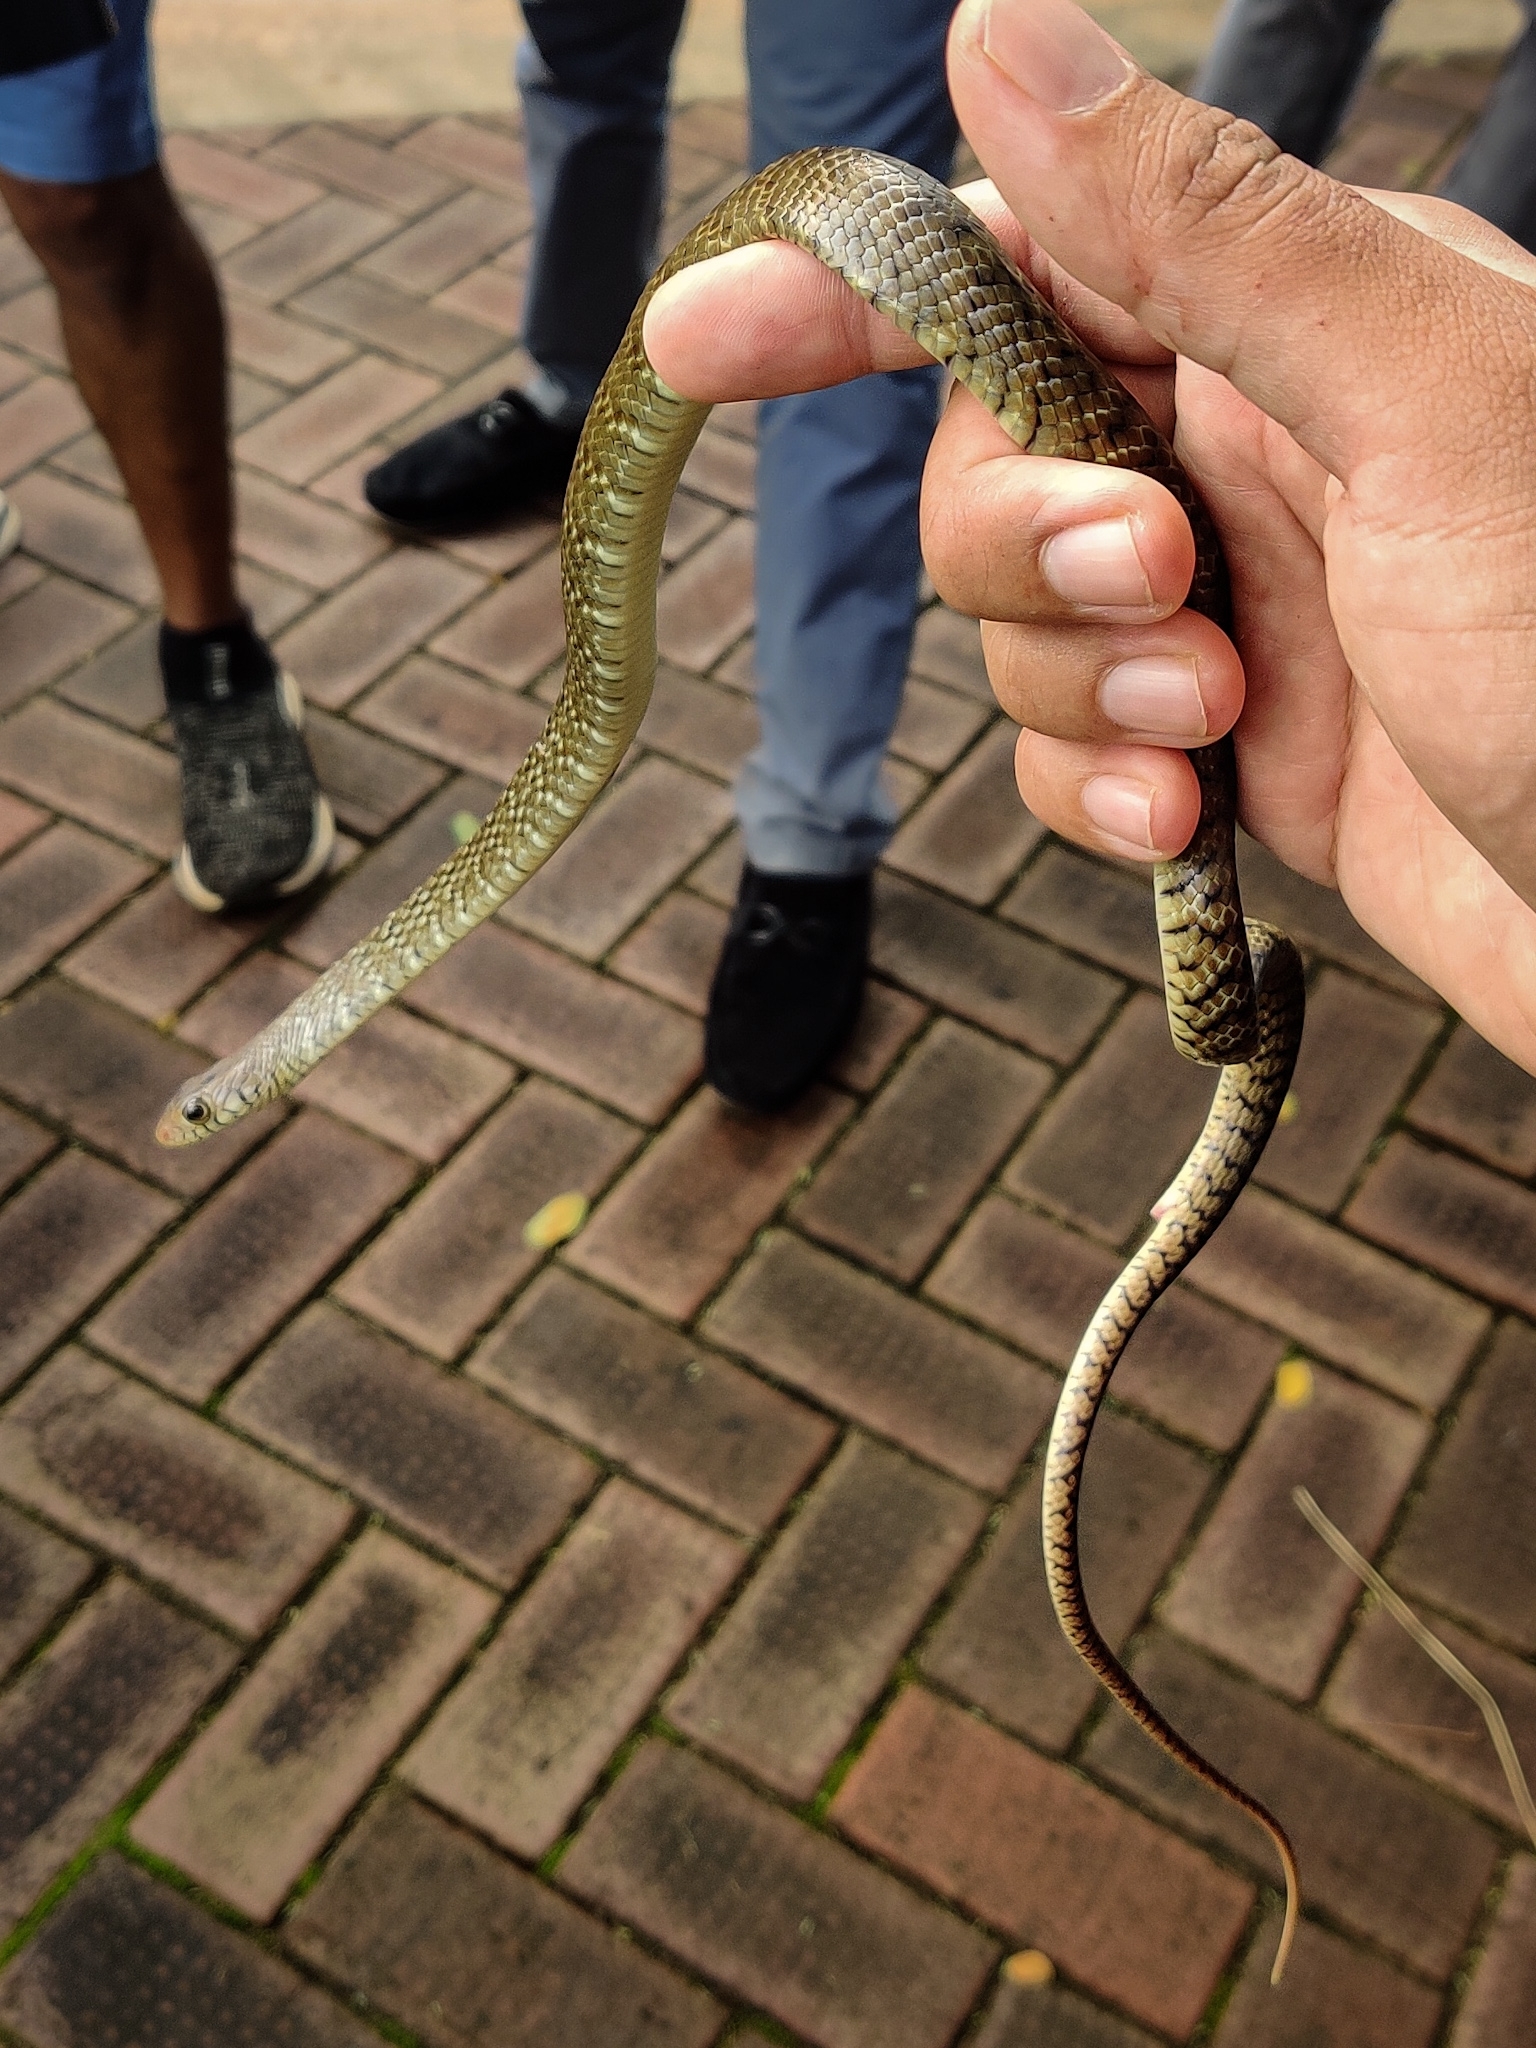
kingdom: Animalia
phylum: Chordata
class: Squamata
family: Colubridae
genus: Ptyas
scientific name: Ptyas mucosa
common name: Oriental ratsnake
